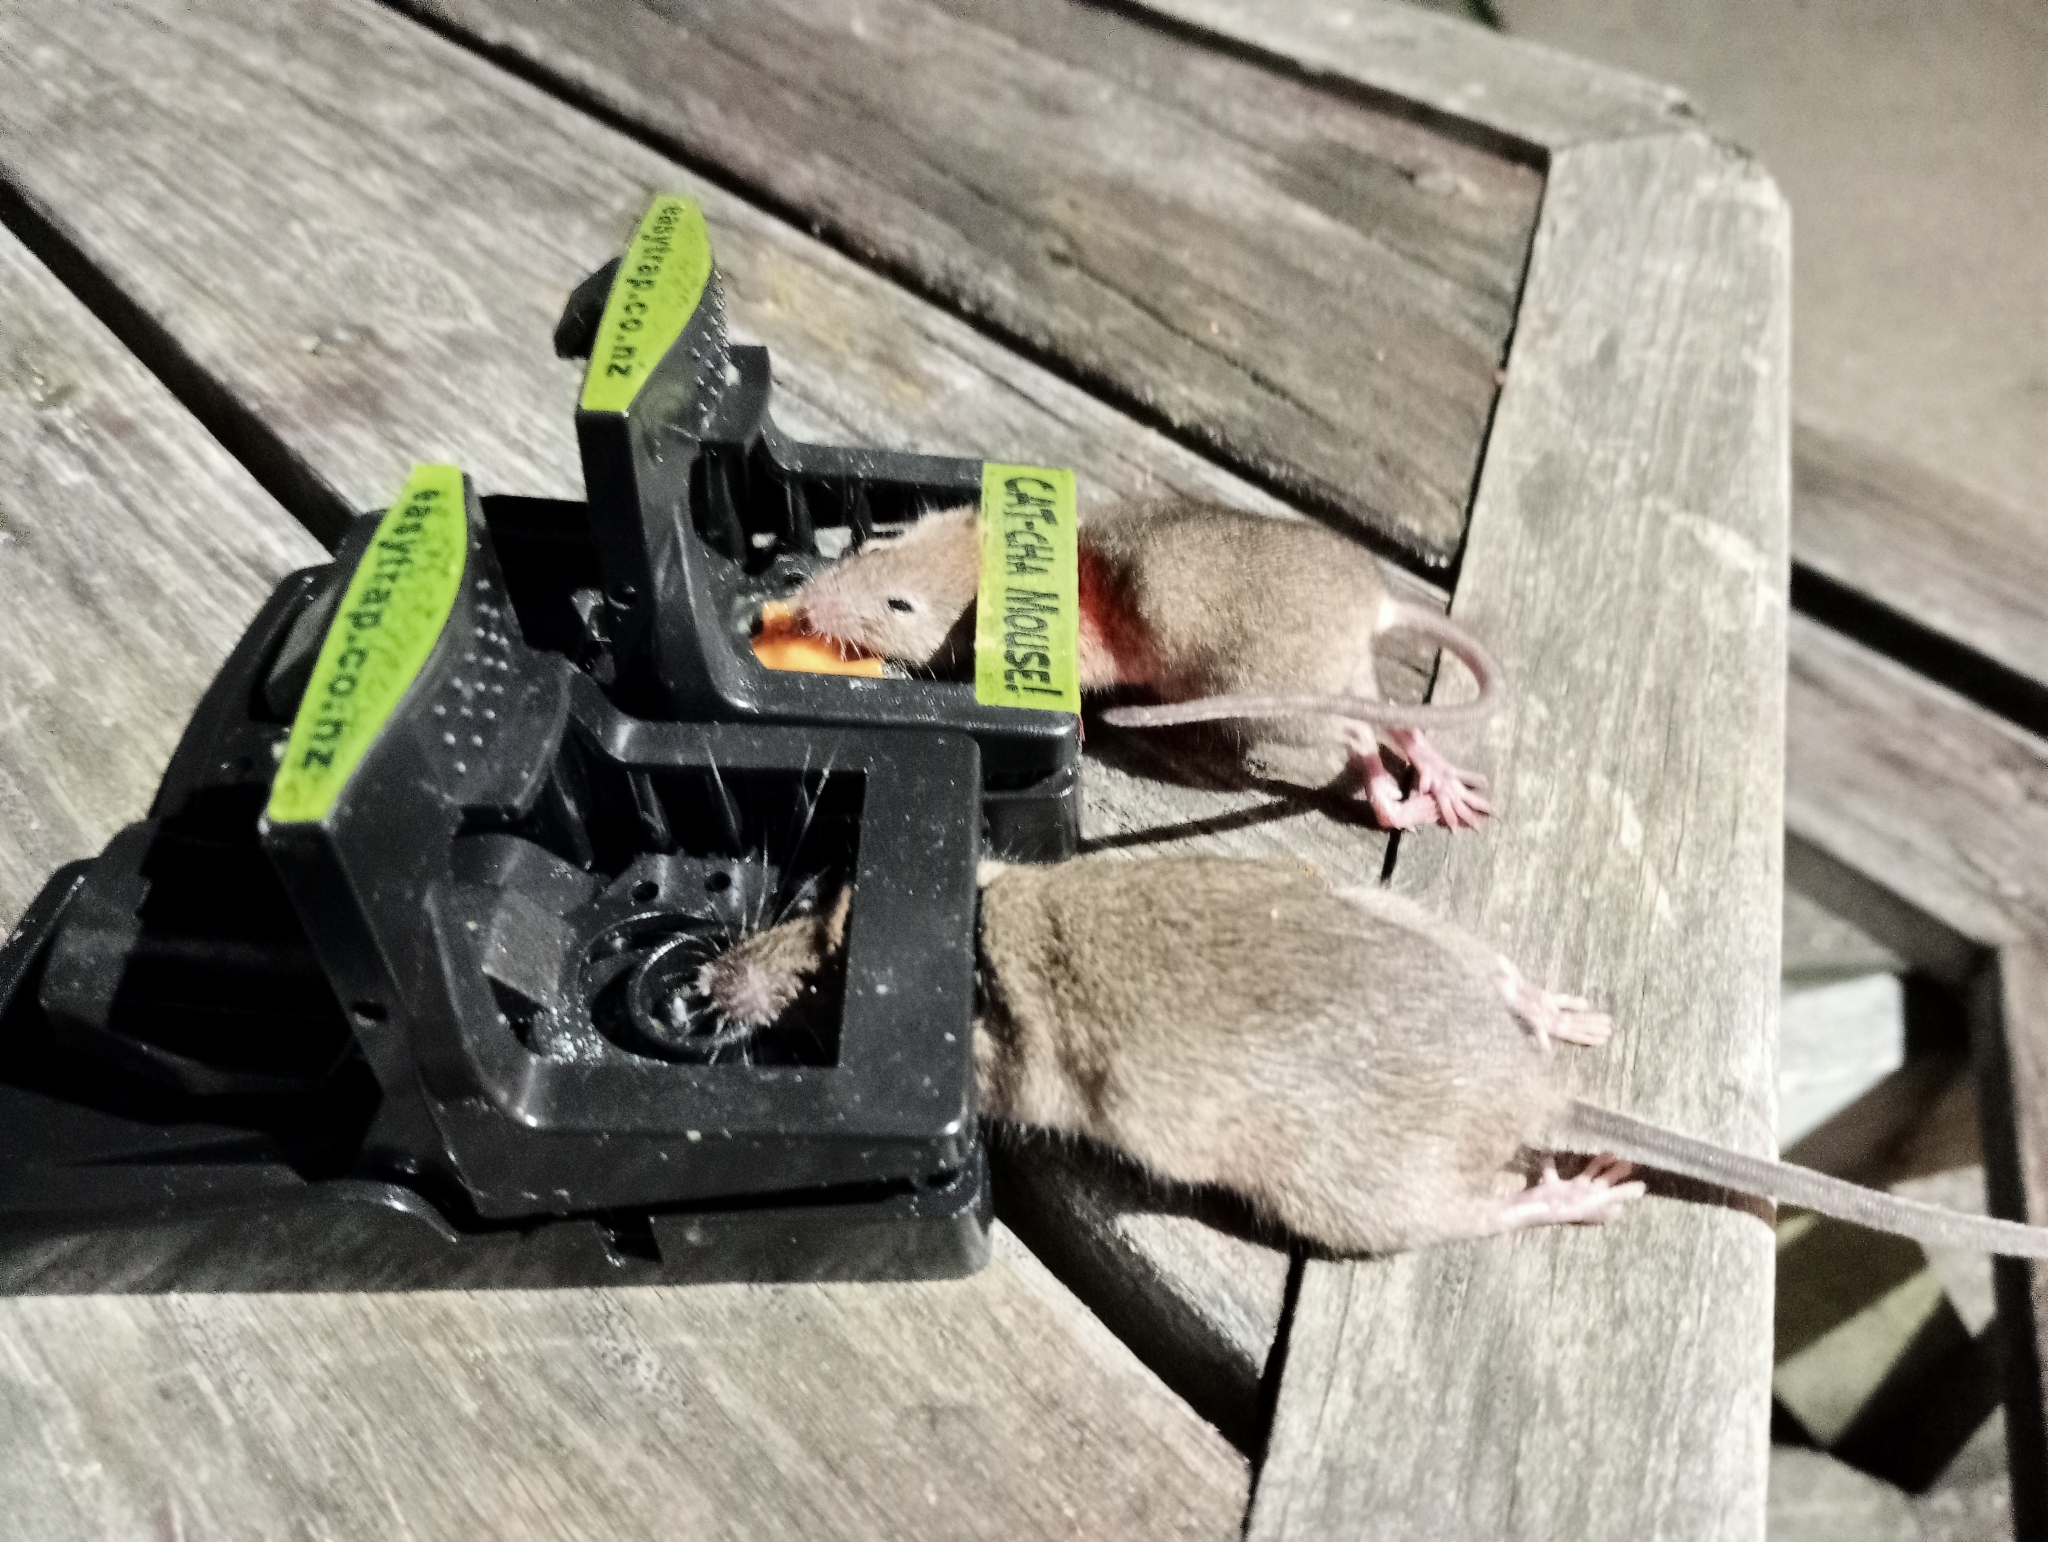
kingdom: Animalia
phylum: Chordata
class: Mammalia
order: Rodentia
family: Muridae
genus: Mus
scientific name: Mus musculus
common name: House mouse
